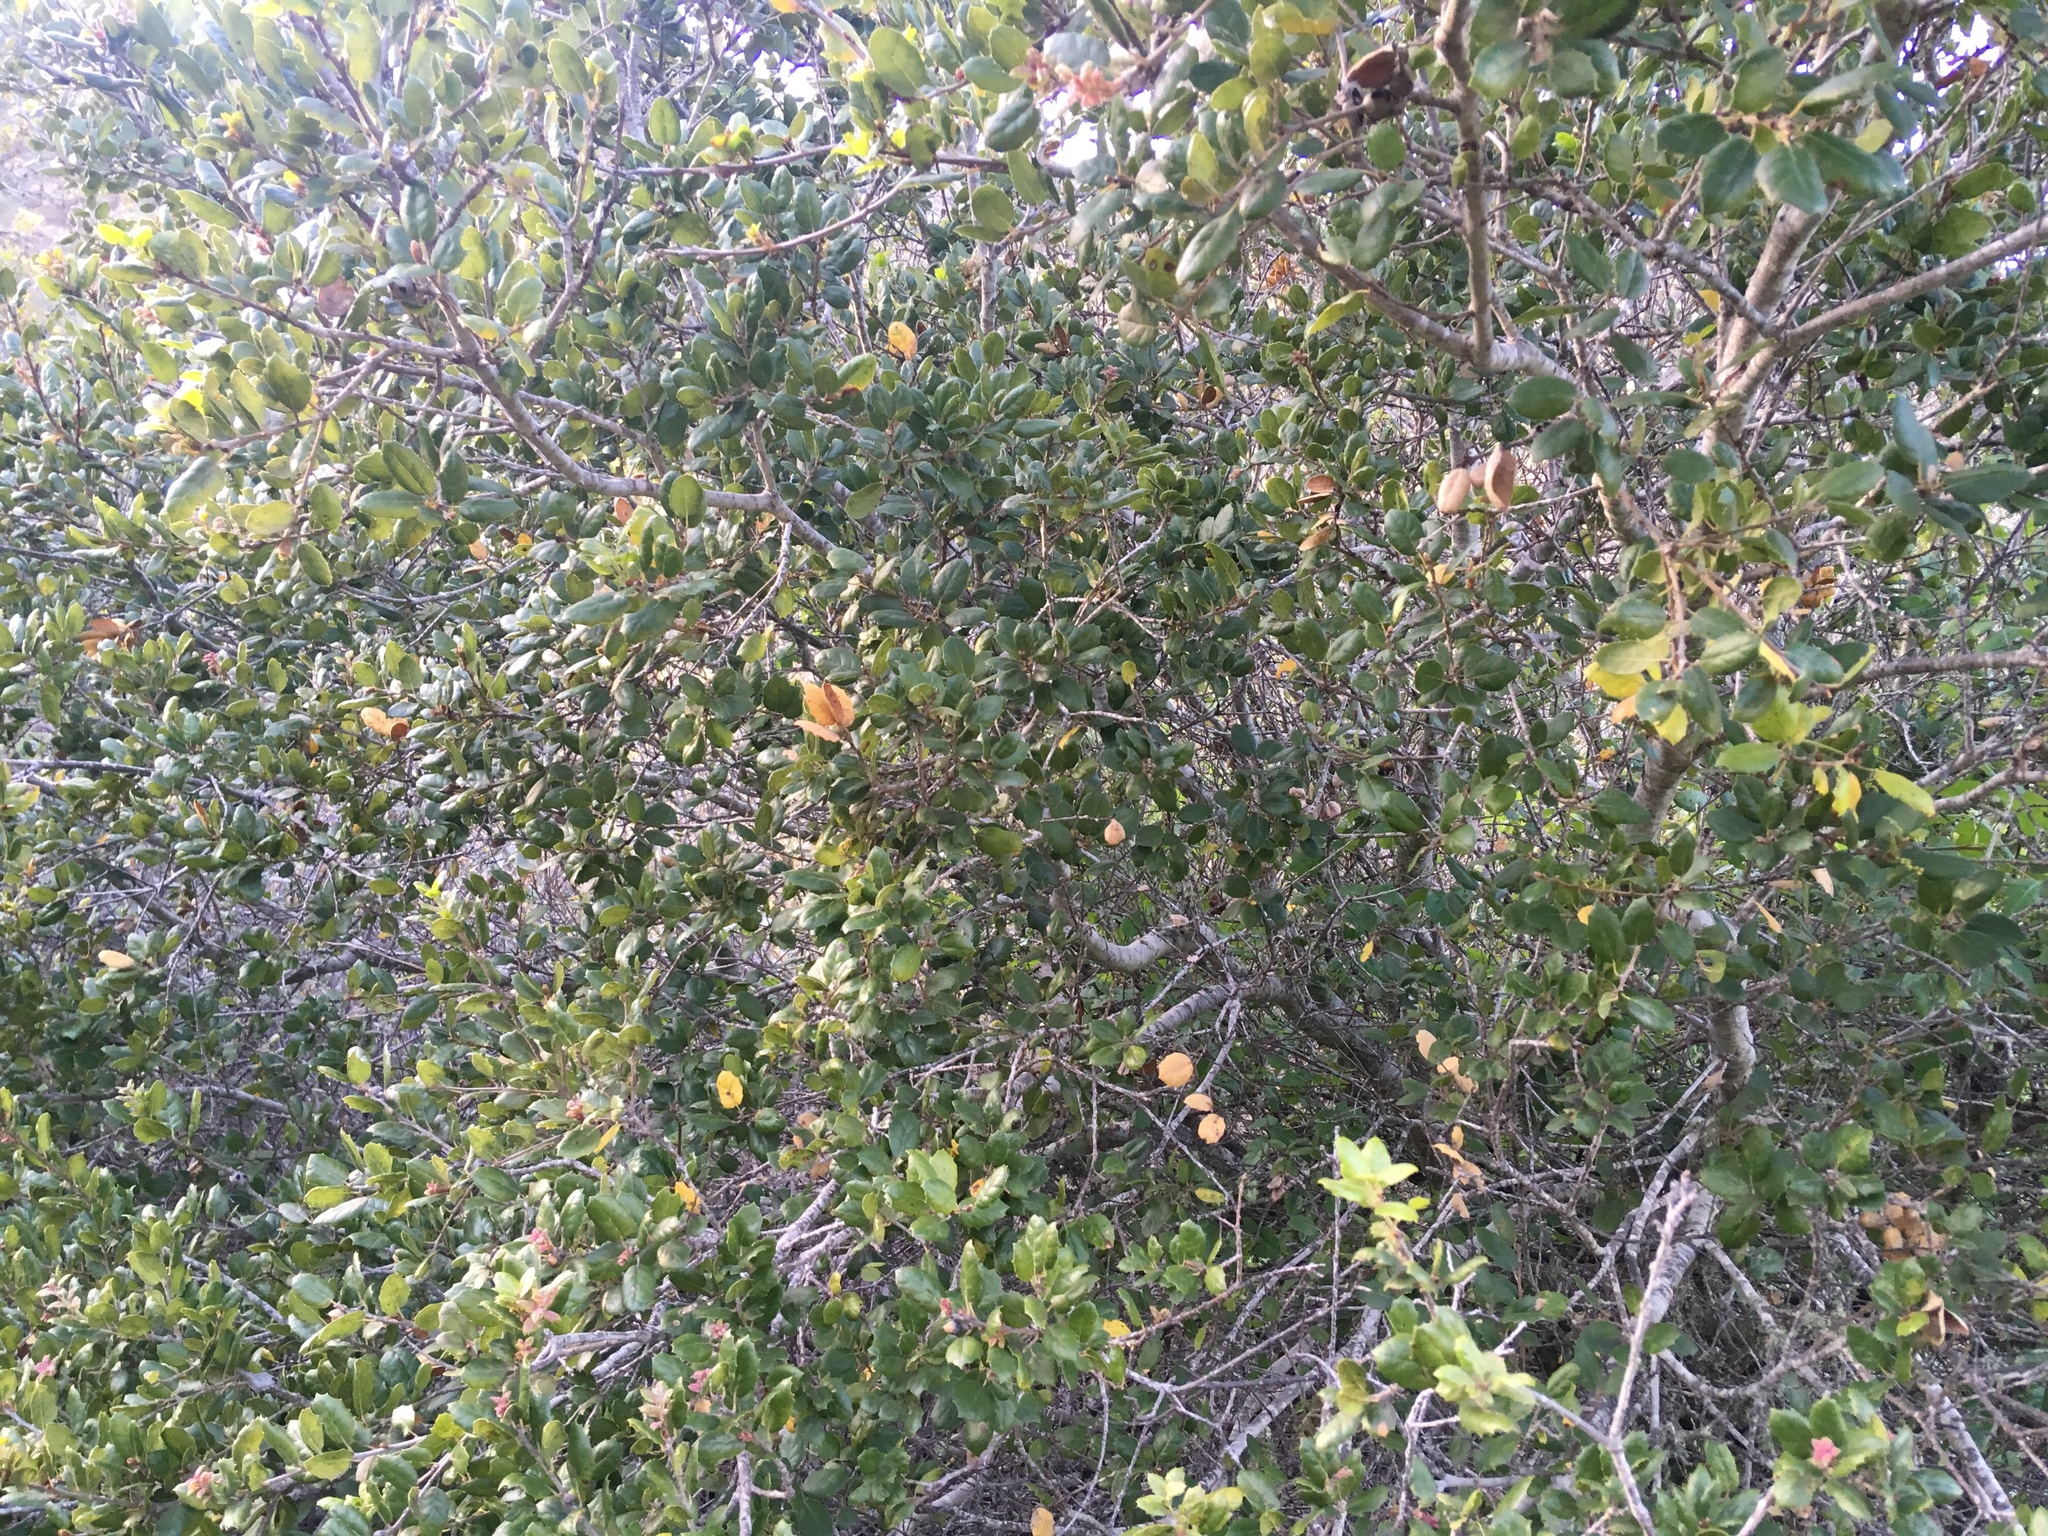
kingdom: Plantae
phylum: Tracheophyta
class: Magnoliopsida
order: Fagales
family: Fagaceae
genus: Quercus
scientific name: Quercus agrifolia
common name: California live oak
